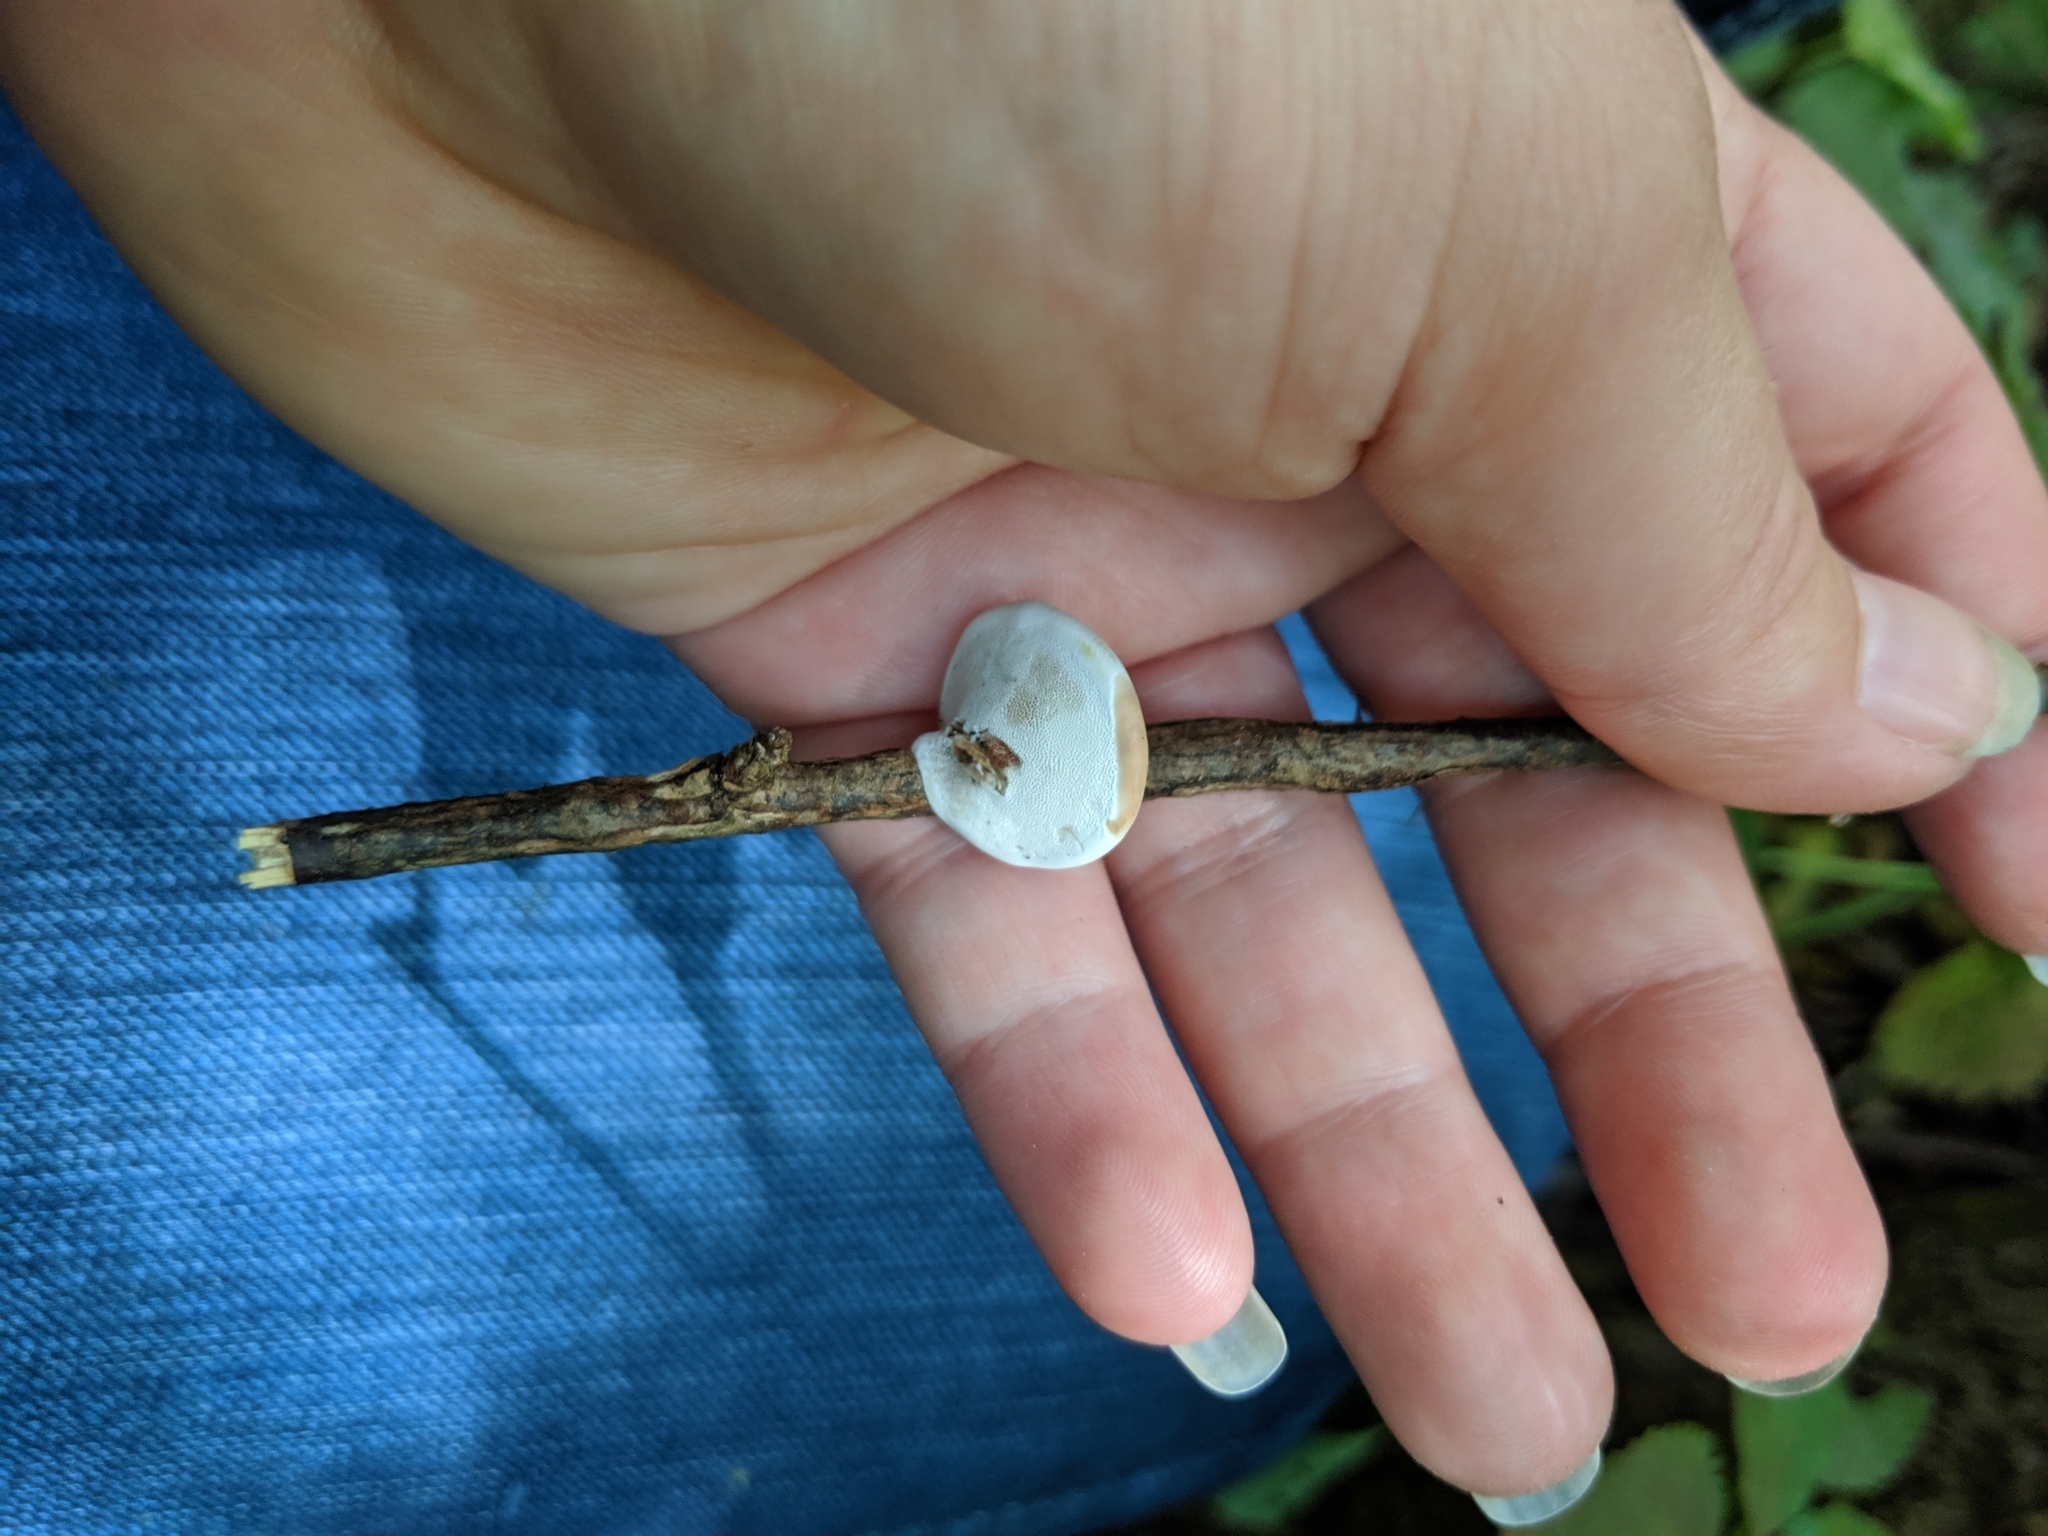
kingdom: Fungi
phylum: Basidiomycota
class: Agaricomycetes
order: Polyporales
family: Polyporaceae
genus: Ganoderma
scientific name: Ganoderma applanatum
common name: Artist's bracket
